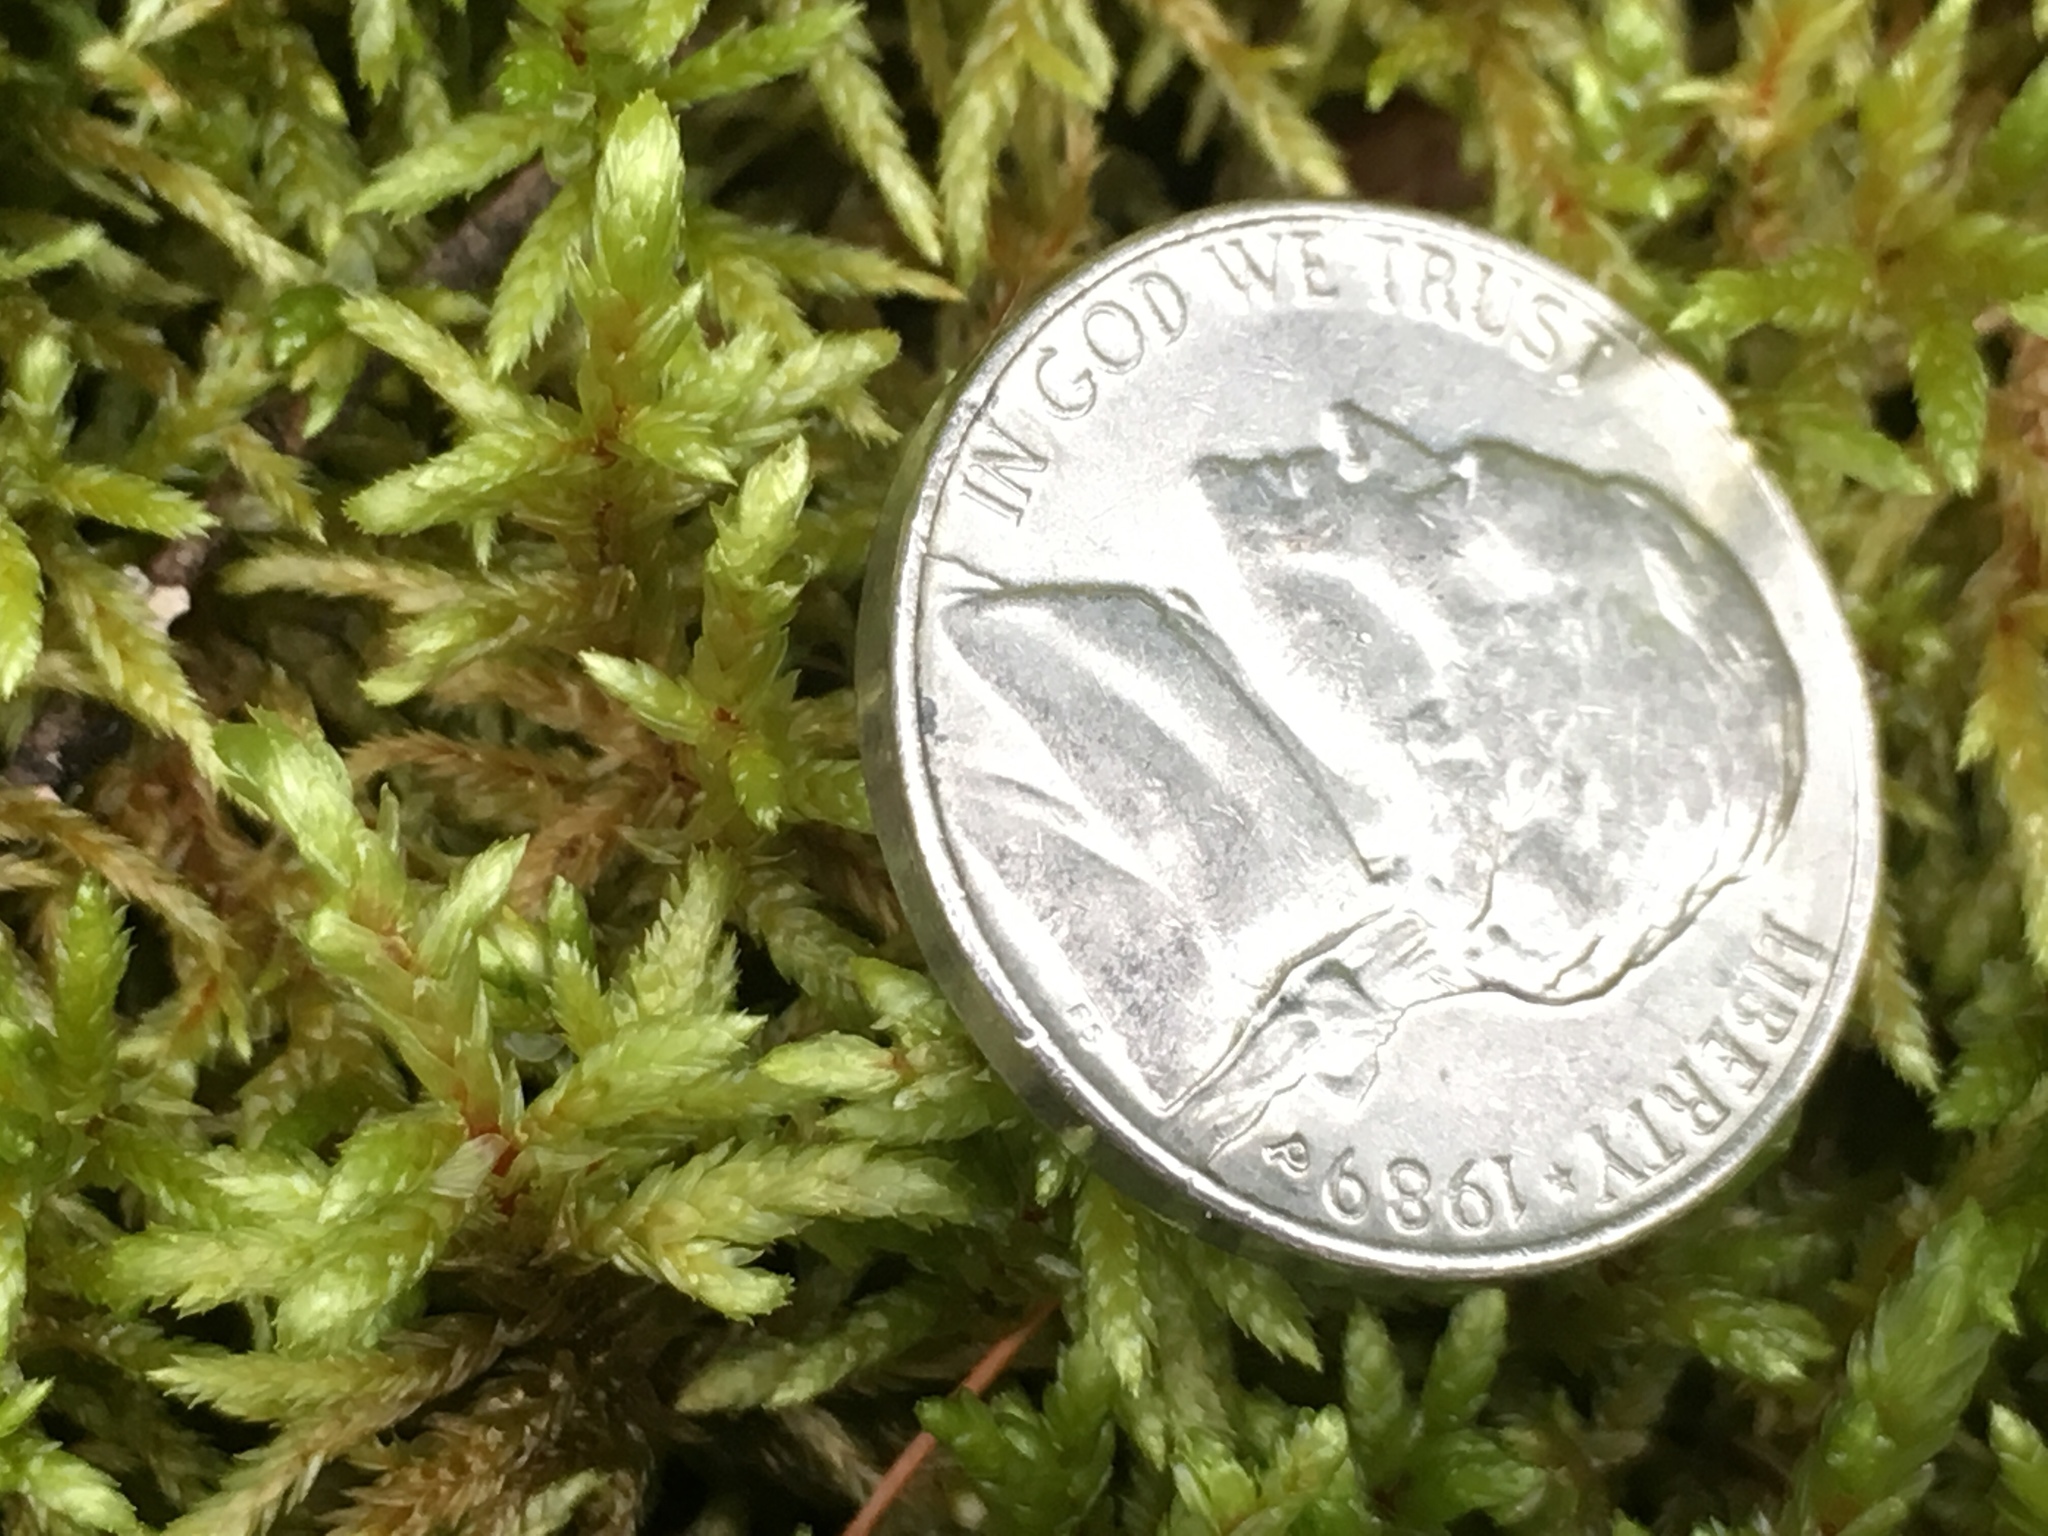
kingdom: Plantae
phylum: Bryophyta
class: Bryopsida
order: Hypnales
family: Hylocomiaceae
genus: Pleurozium
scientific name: Pleurozium schreberi
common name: Red-stemmed feather moss
